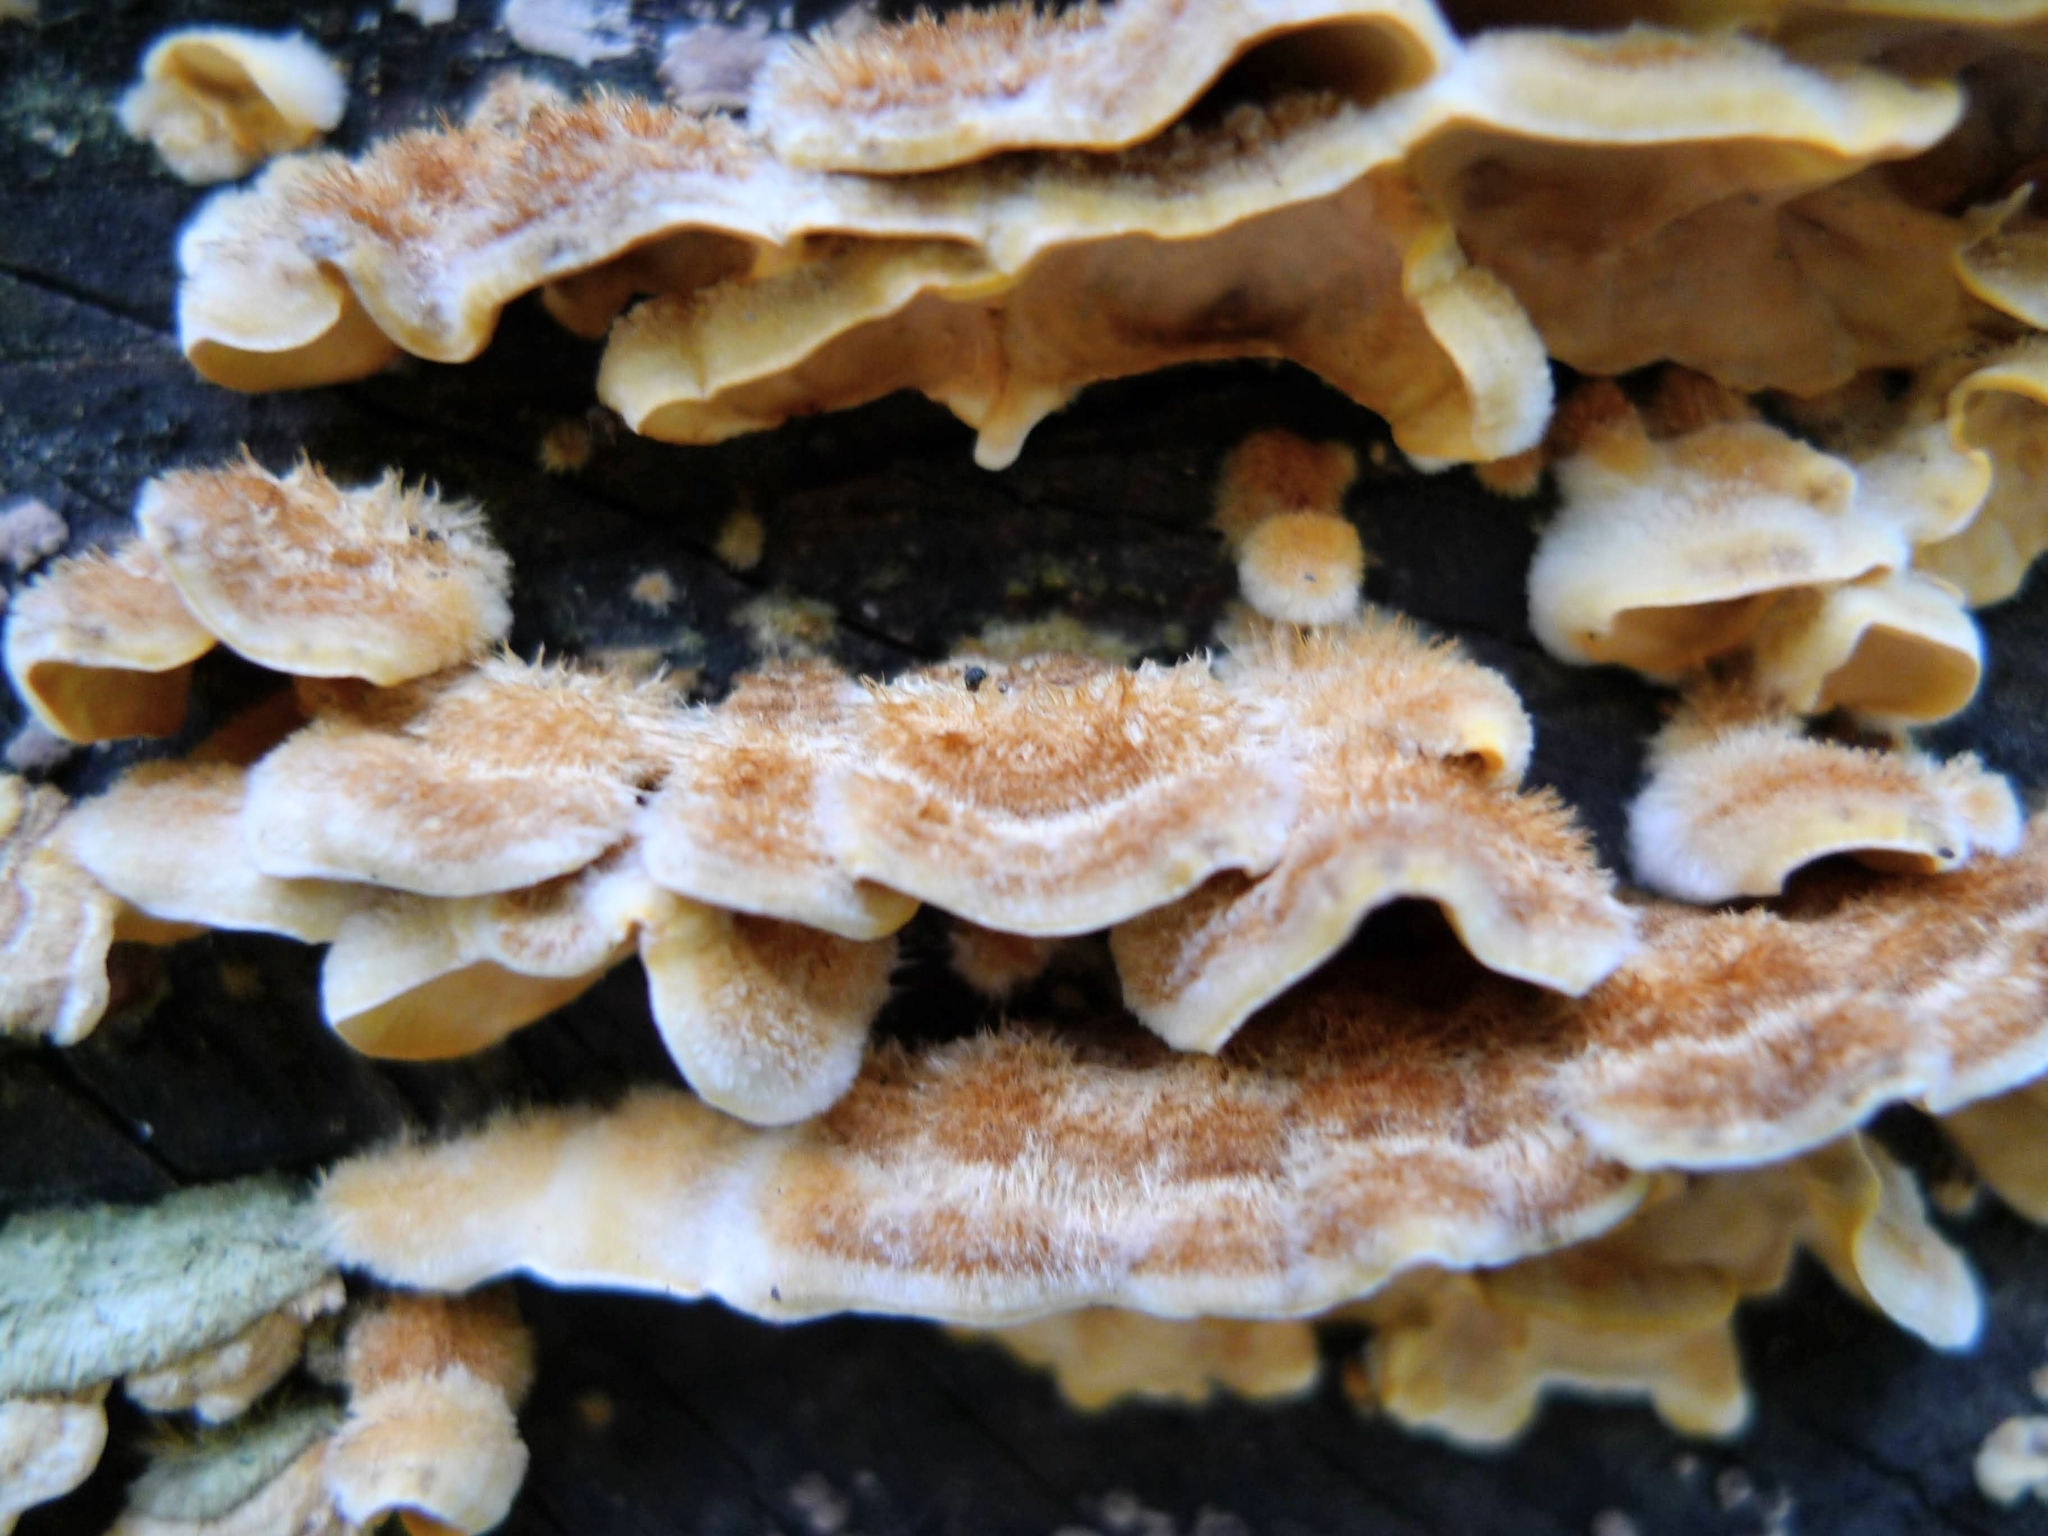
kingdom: Fungi
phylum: Basidiomycota
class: Agaricomycetes
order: Russulales
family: Stereaceae
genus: Stereum
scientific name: Stereum hirsutum
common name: Hairy curtain crust
